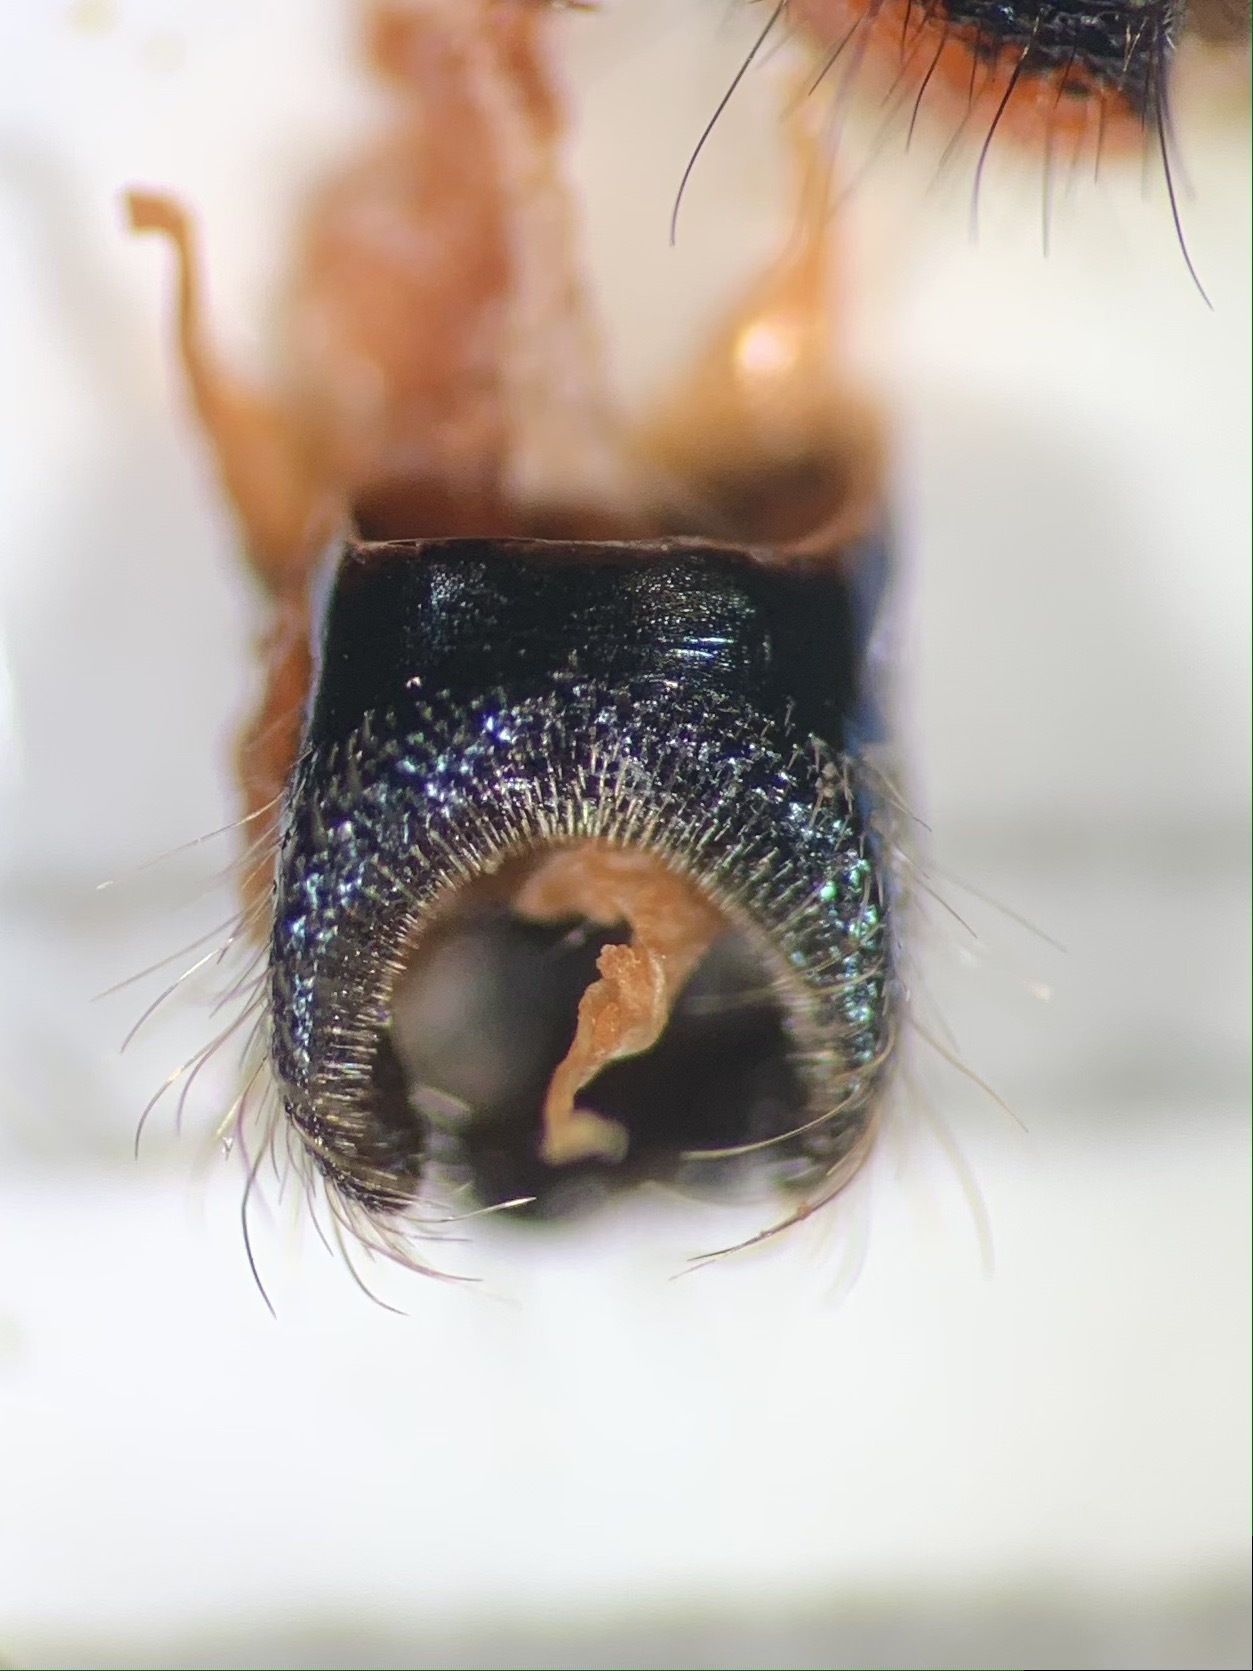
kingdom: Animalia
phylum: Arthropoda
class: Insecta
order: Coleoptera
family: Cleridae
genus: Trichodes
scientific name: Trichodes alvearius
